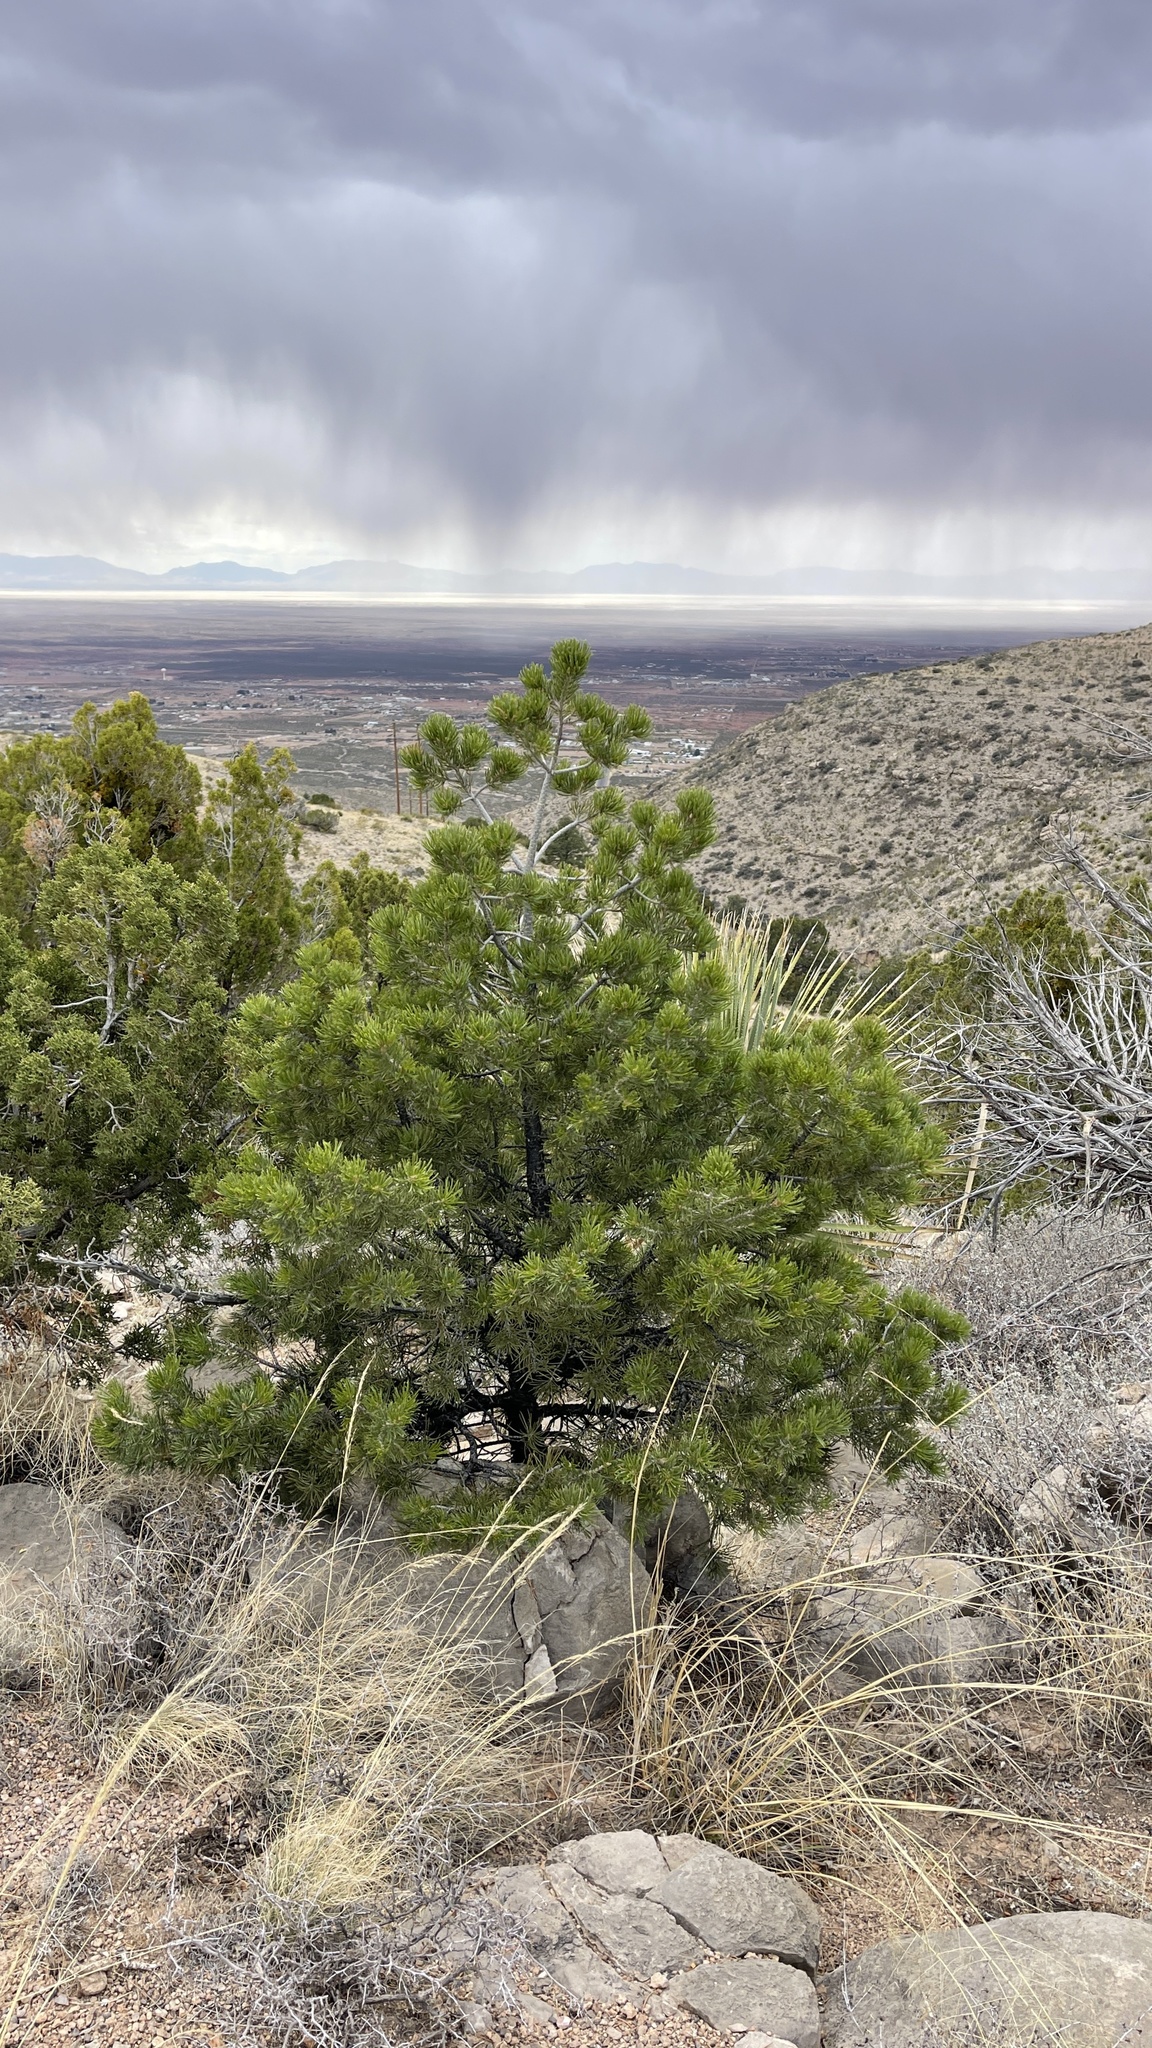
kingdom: Plantae
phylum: Tracheophyta
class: Pinopsida
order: Pinales
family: Pinaceae
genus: Pinus
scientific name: Pinus edulis
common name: Colorado pinyon
